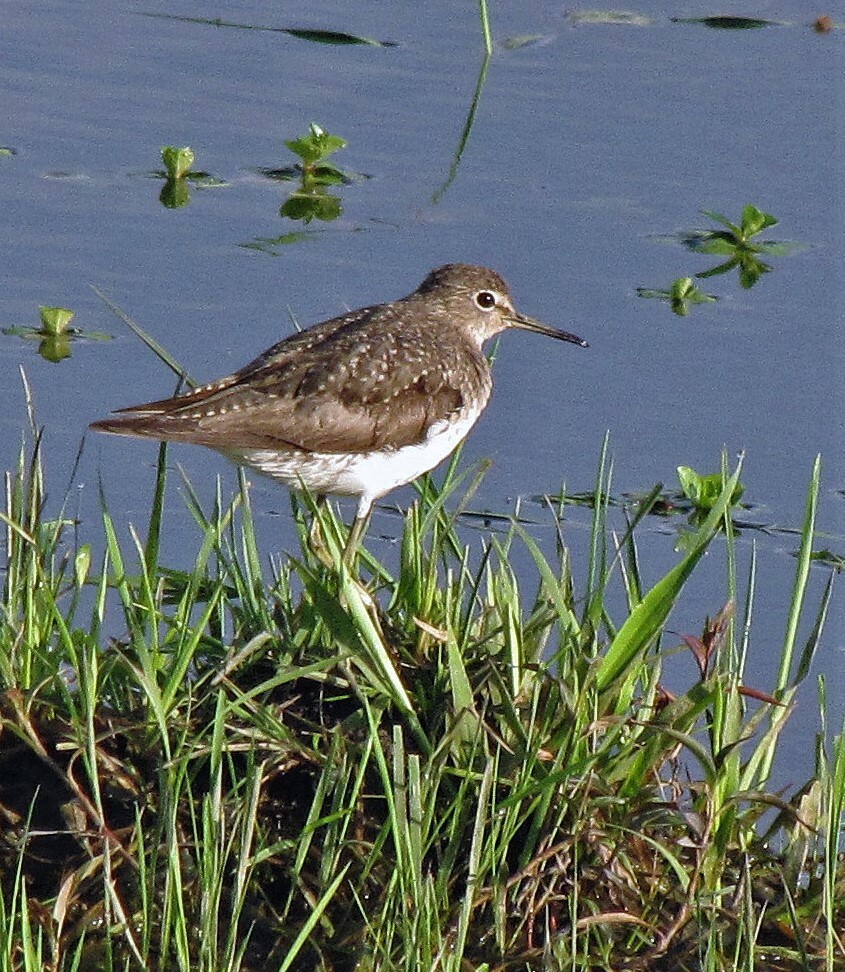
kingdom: Animalia
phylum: Chordata
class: Aves
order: Charadriiformes
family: Scolopacidae
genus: Tringa
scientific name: Tringa solitaria
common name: Solitary sandpiper
